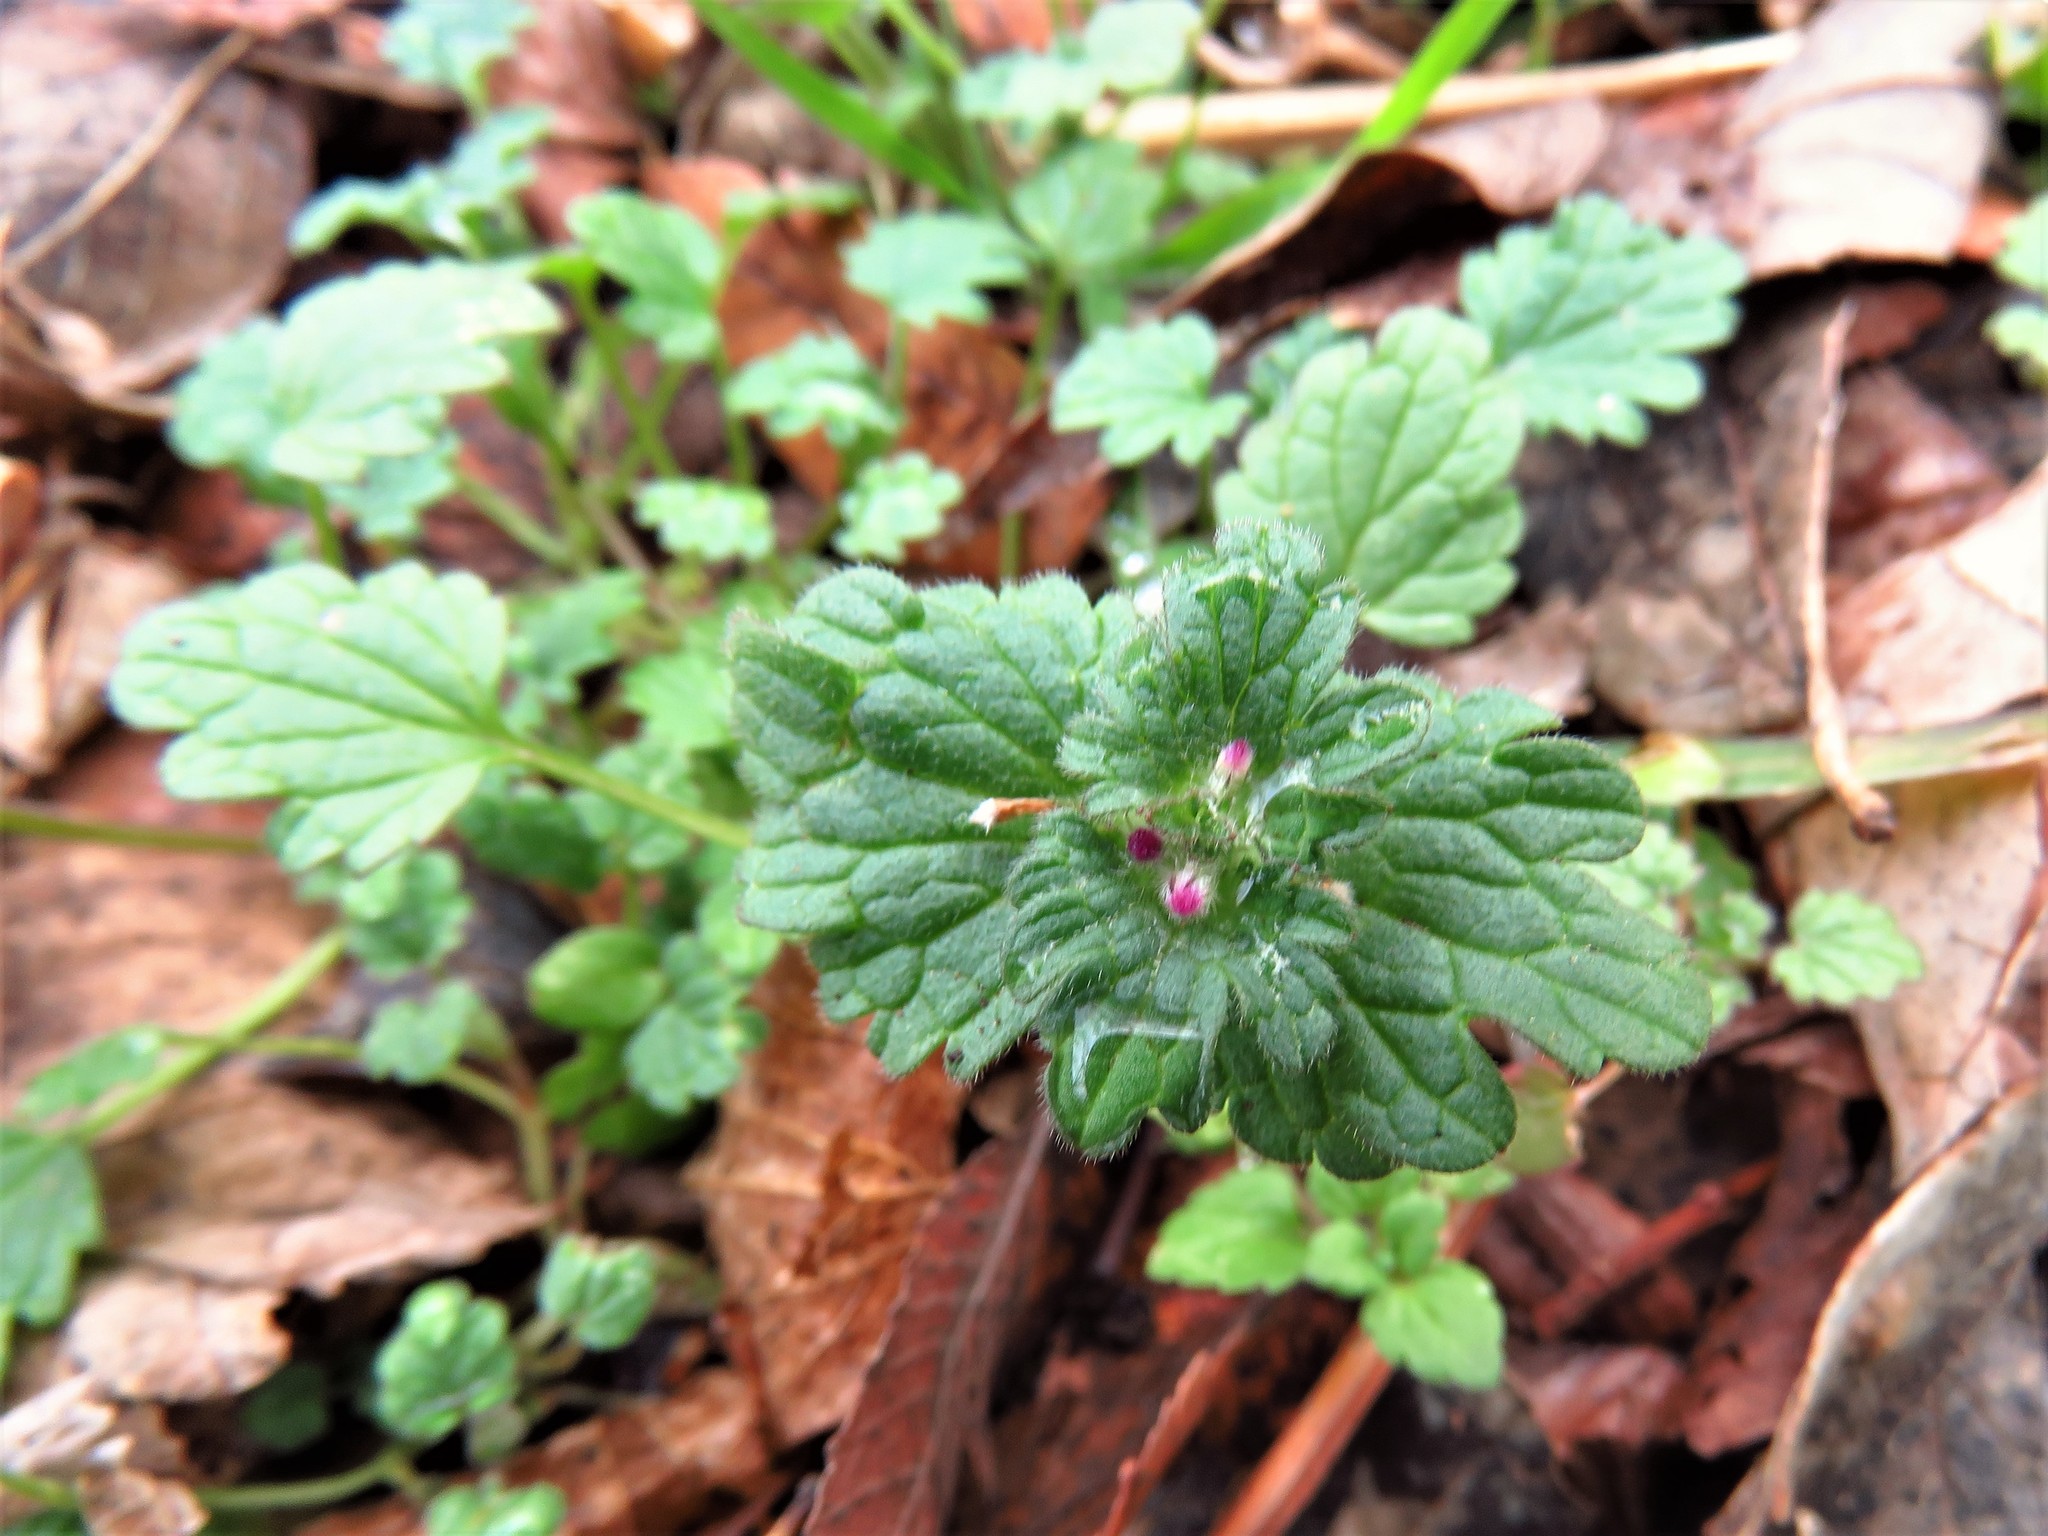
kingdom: Plantae
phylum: Tracheophyta
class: Magnoliopsida
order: Lamiales
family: Lamiaceae
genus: Lamium
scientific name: Lamium amplexicaule
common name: Henbit dead-nettle
